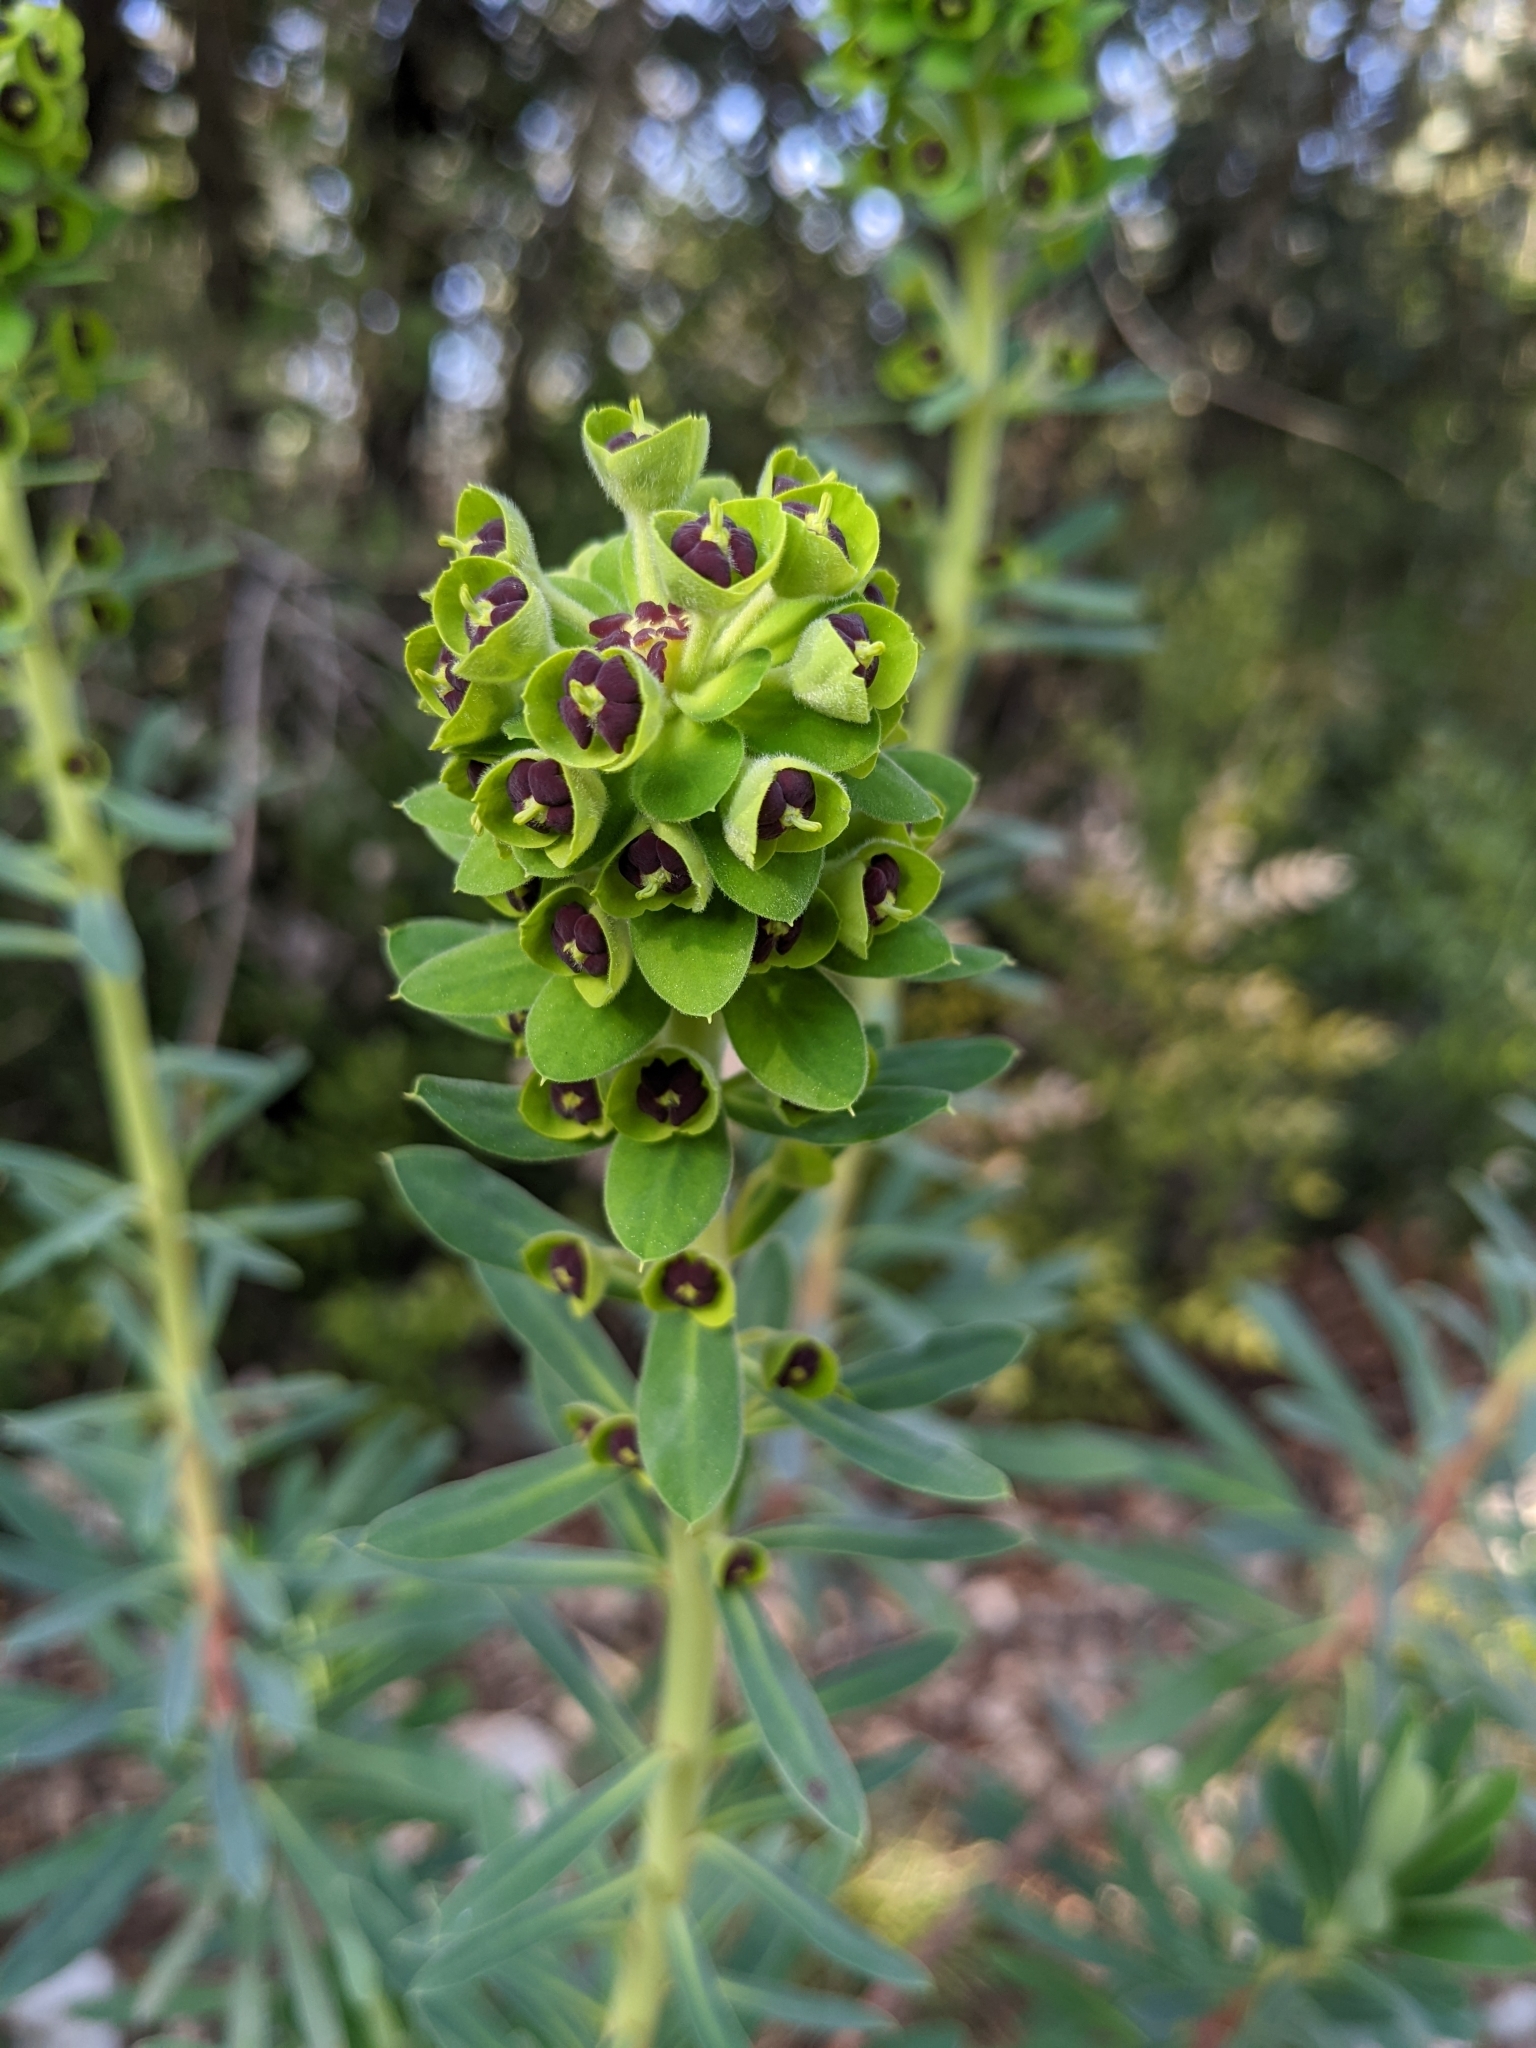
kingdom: Plantae
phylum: Tracheophyta
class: Magnoliopsida
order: Malpighiales
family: Euphorbiaceae
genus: Euphorbia
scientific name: Euphorbia characias
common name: Mediterranean spurge
